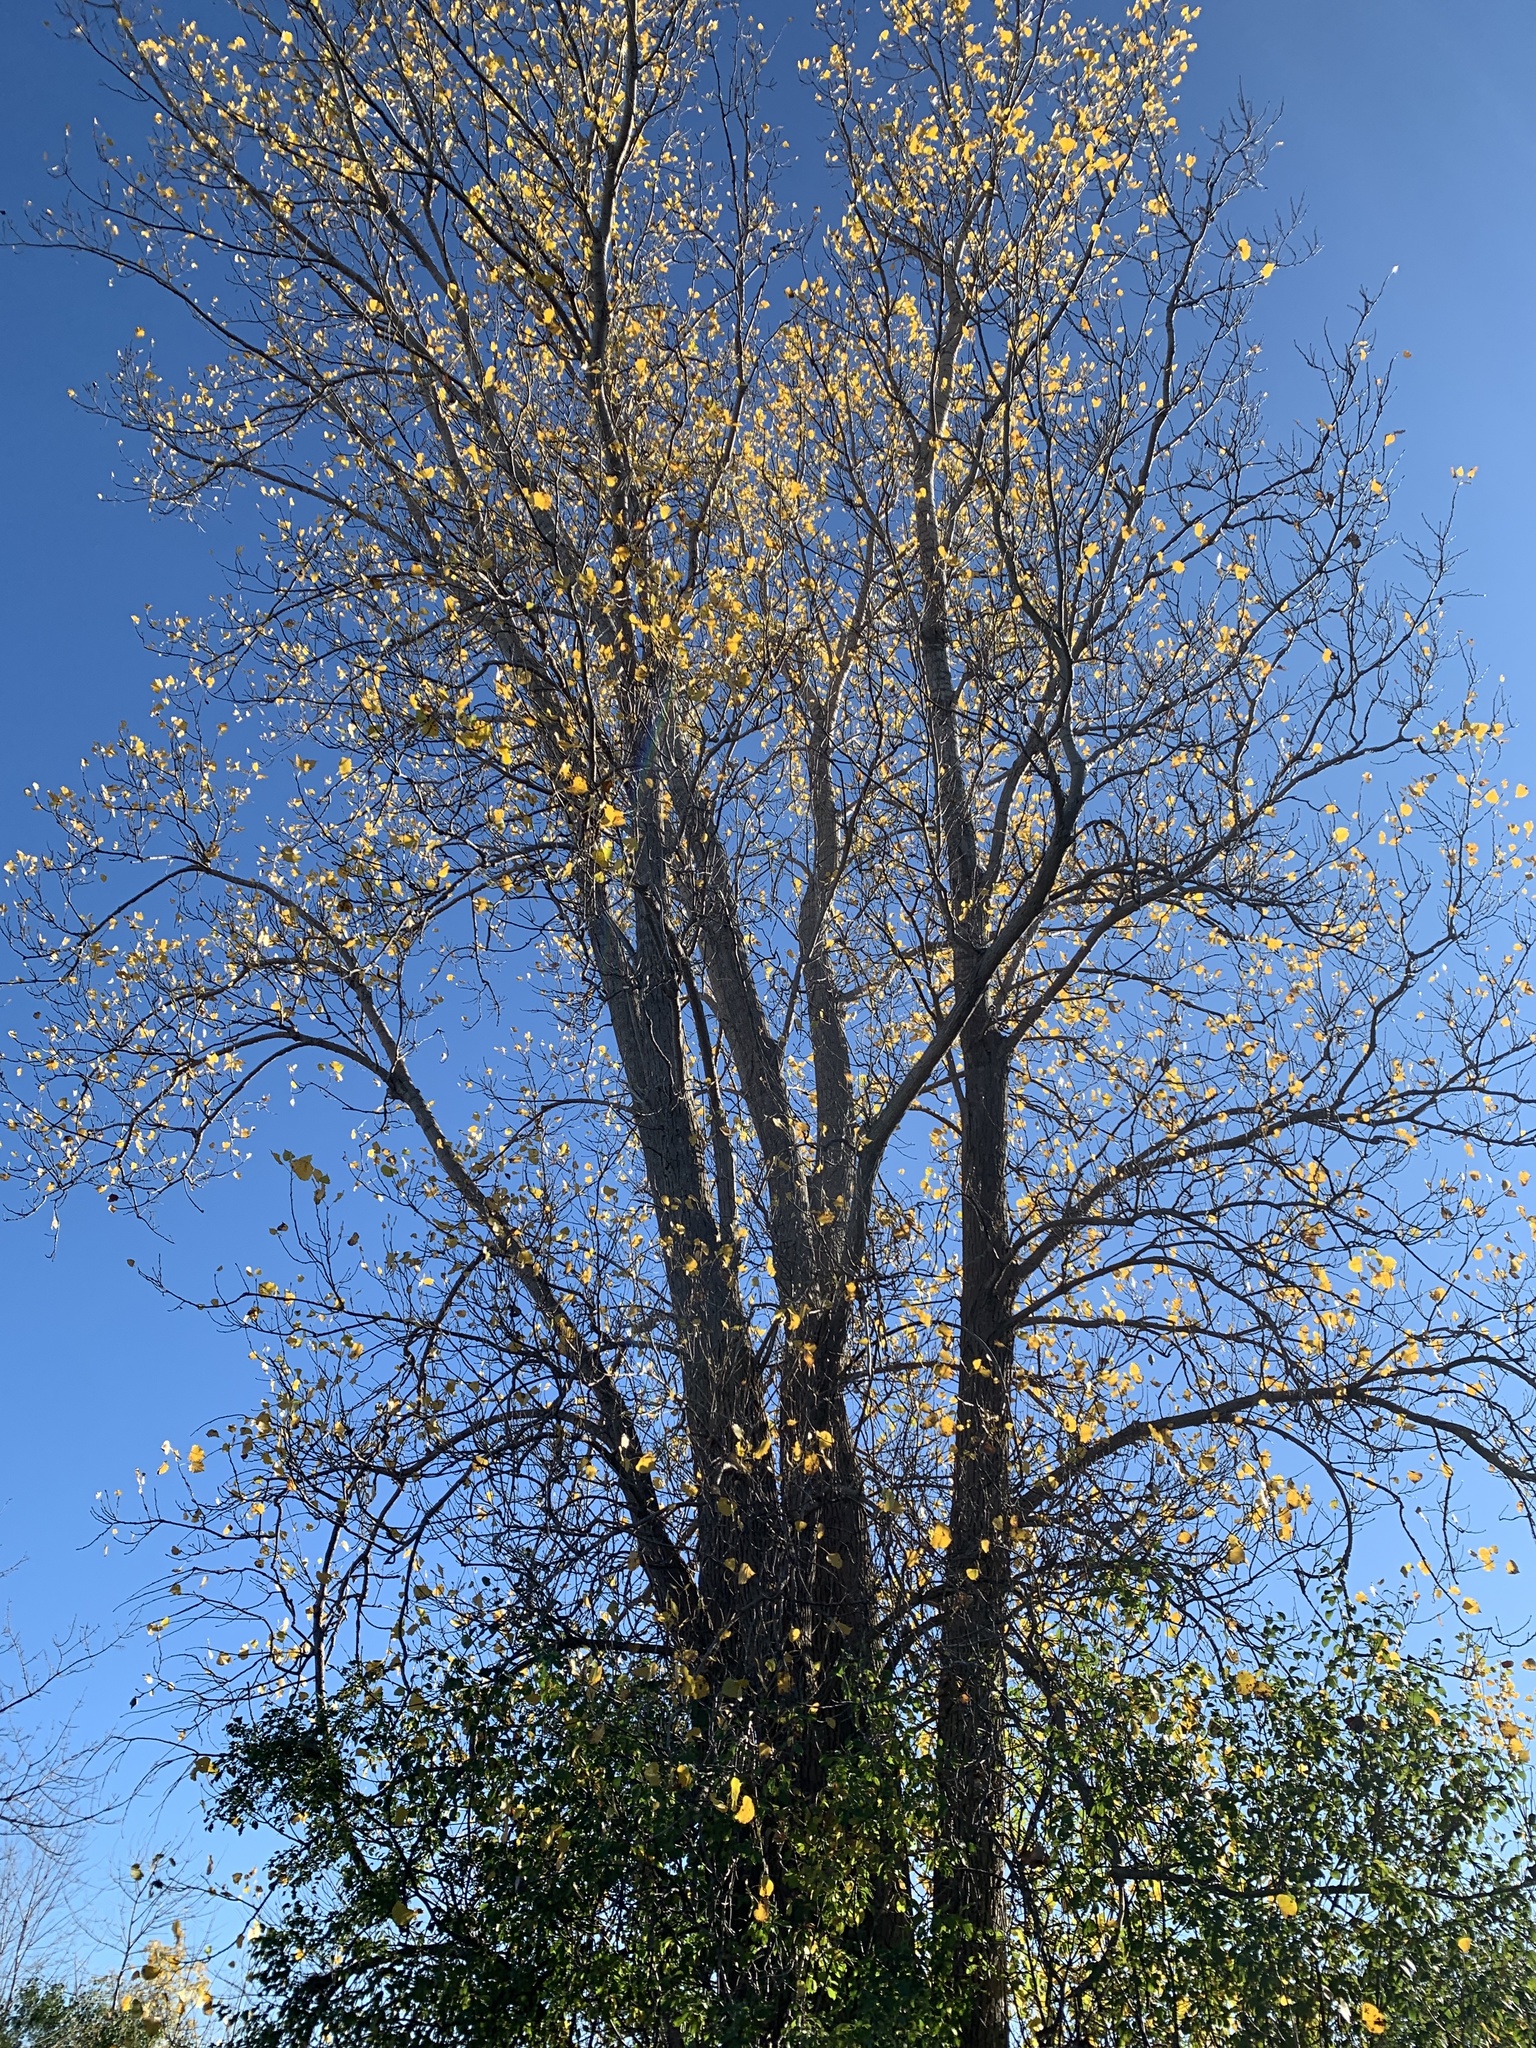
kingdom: Plantae
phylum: Tracheophyta
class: Magnoliopsida
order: Malpighiales
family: Salicaceae
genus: Populus
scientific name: Populus deltoides
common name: Eastern cottonwood
